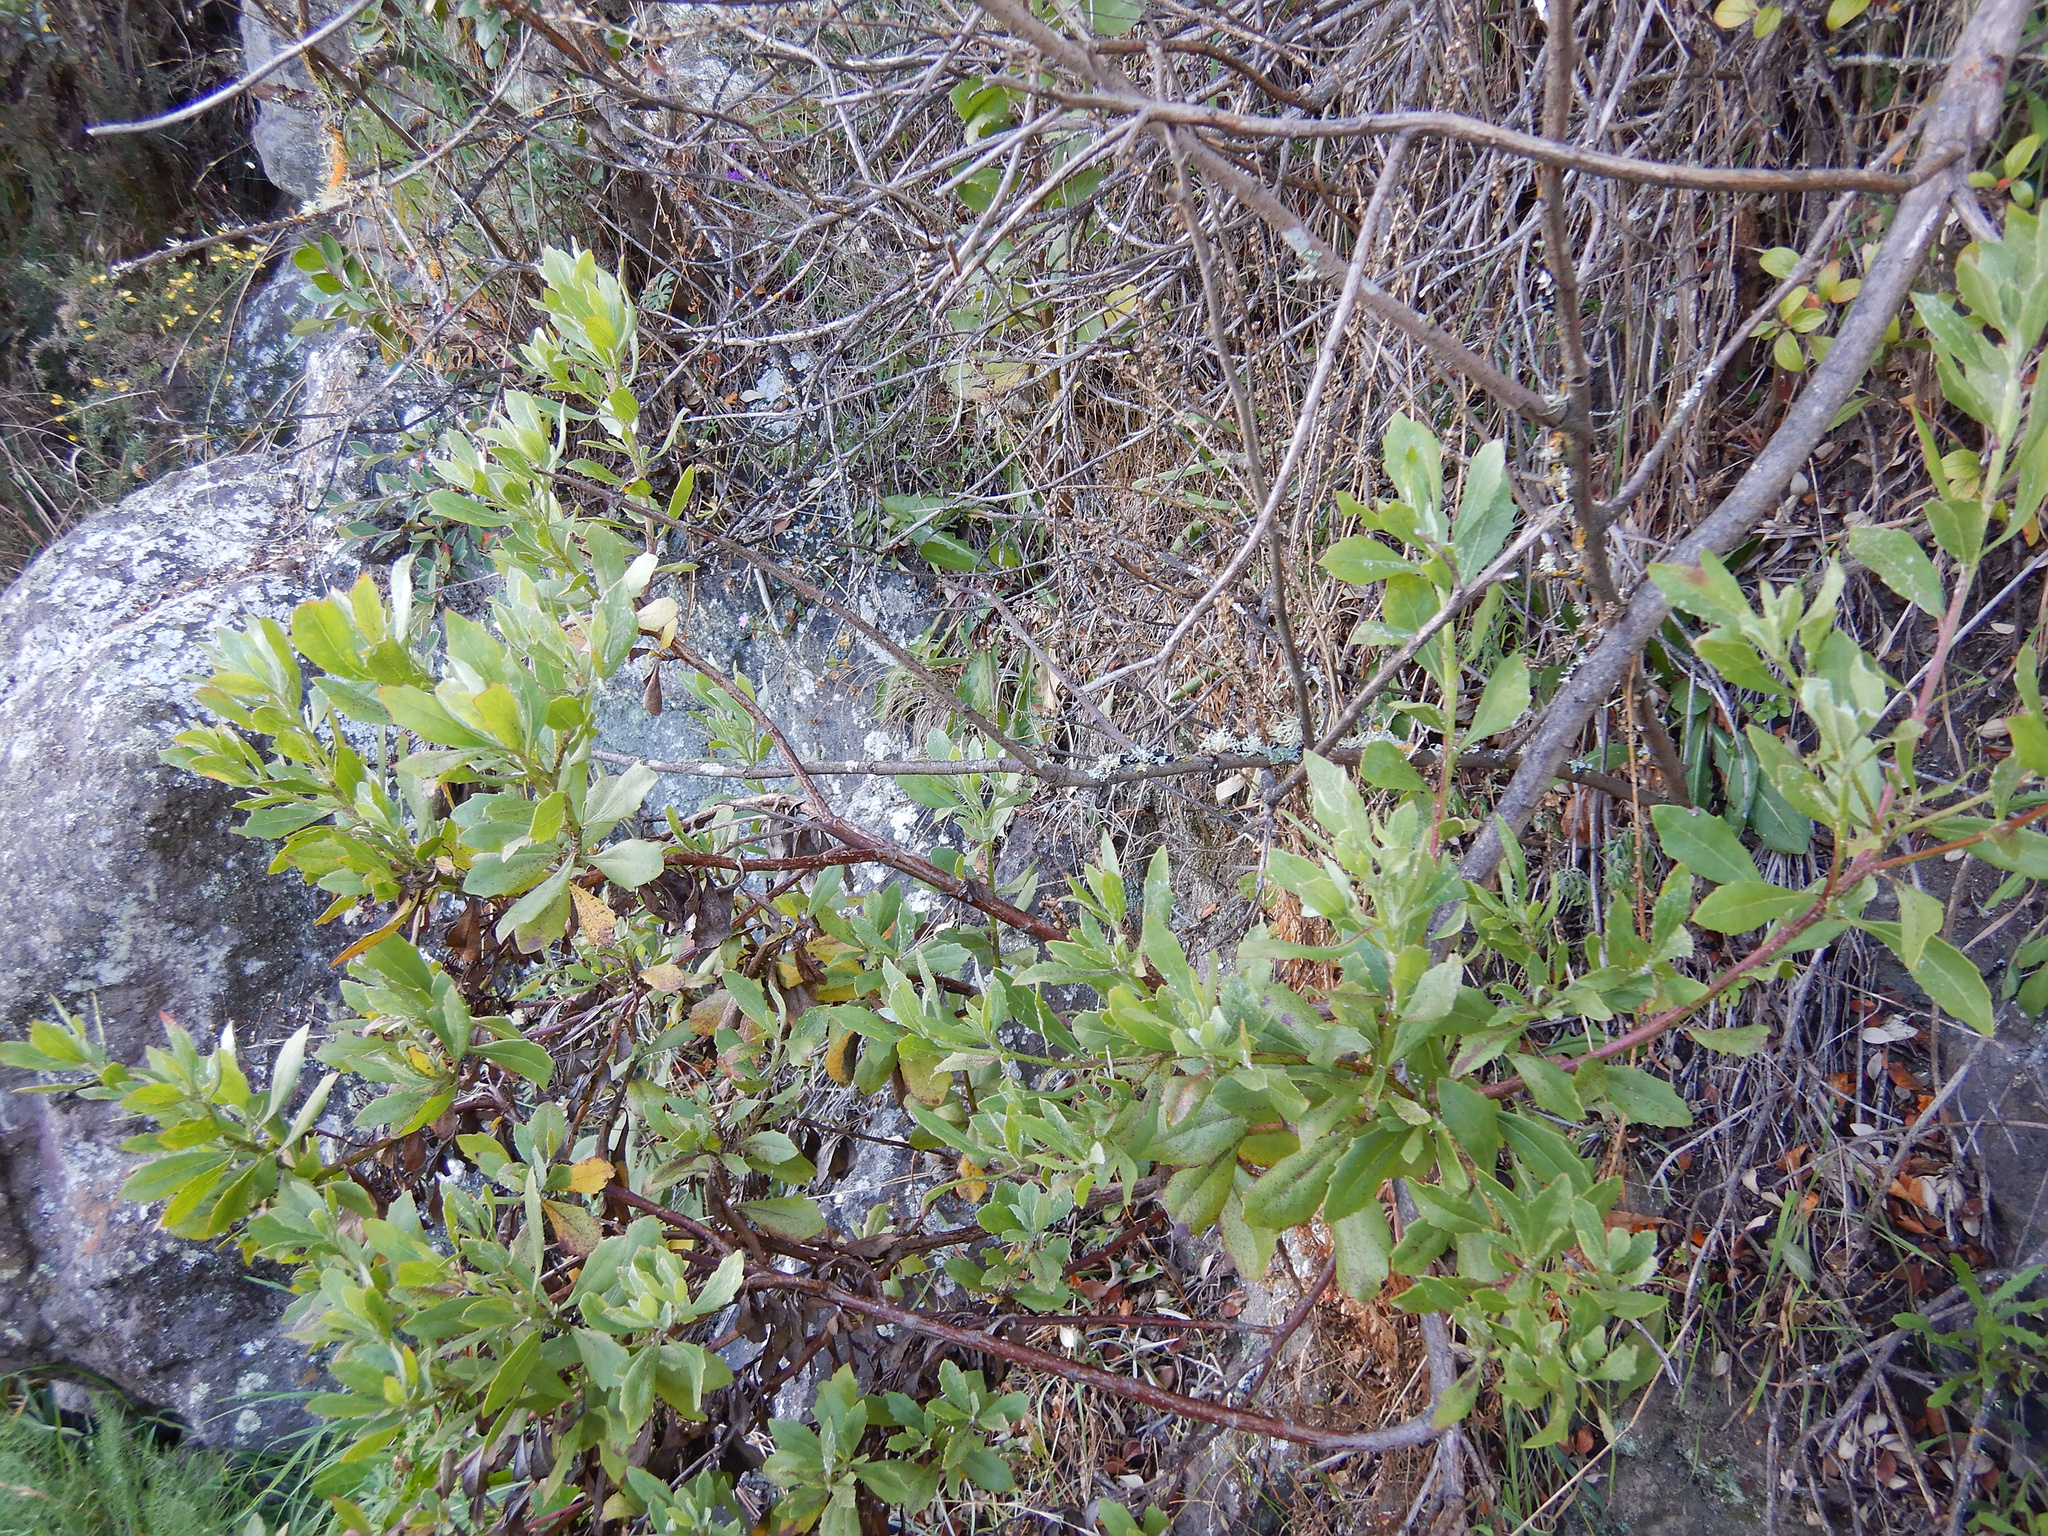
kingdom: Plantae
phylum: Tracheophyta
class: Magnoliopsida
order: Asterales
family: Asteraceae
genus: Osteospermum
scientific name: Osteospermum moniliferum
